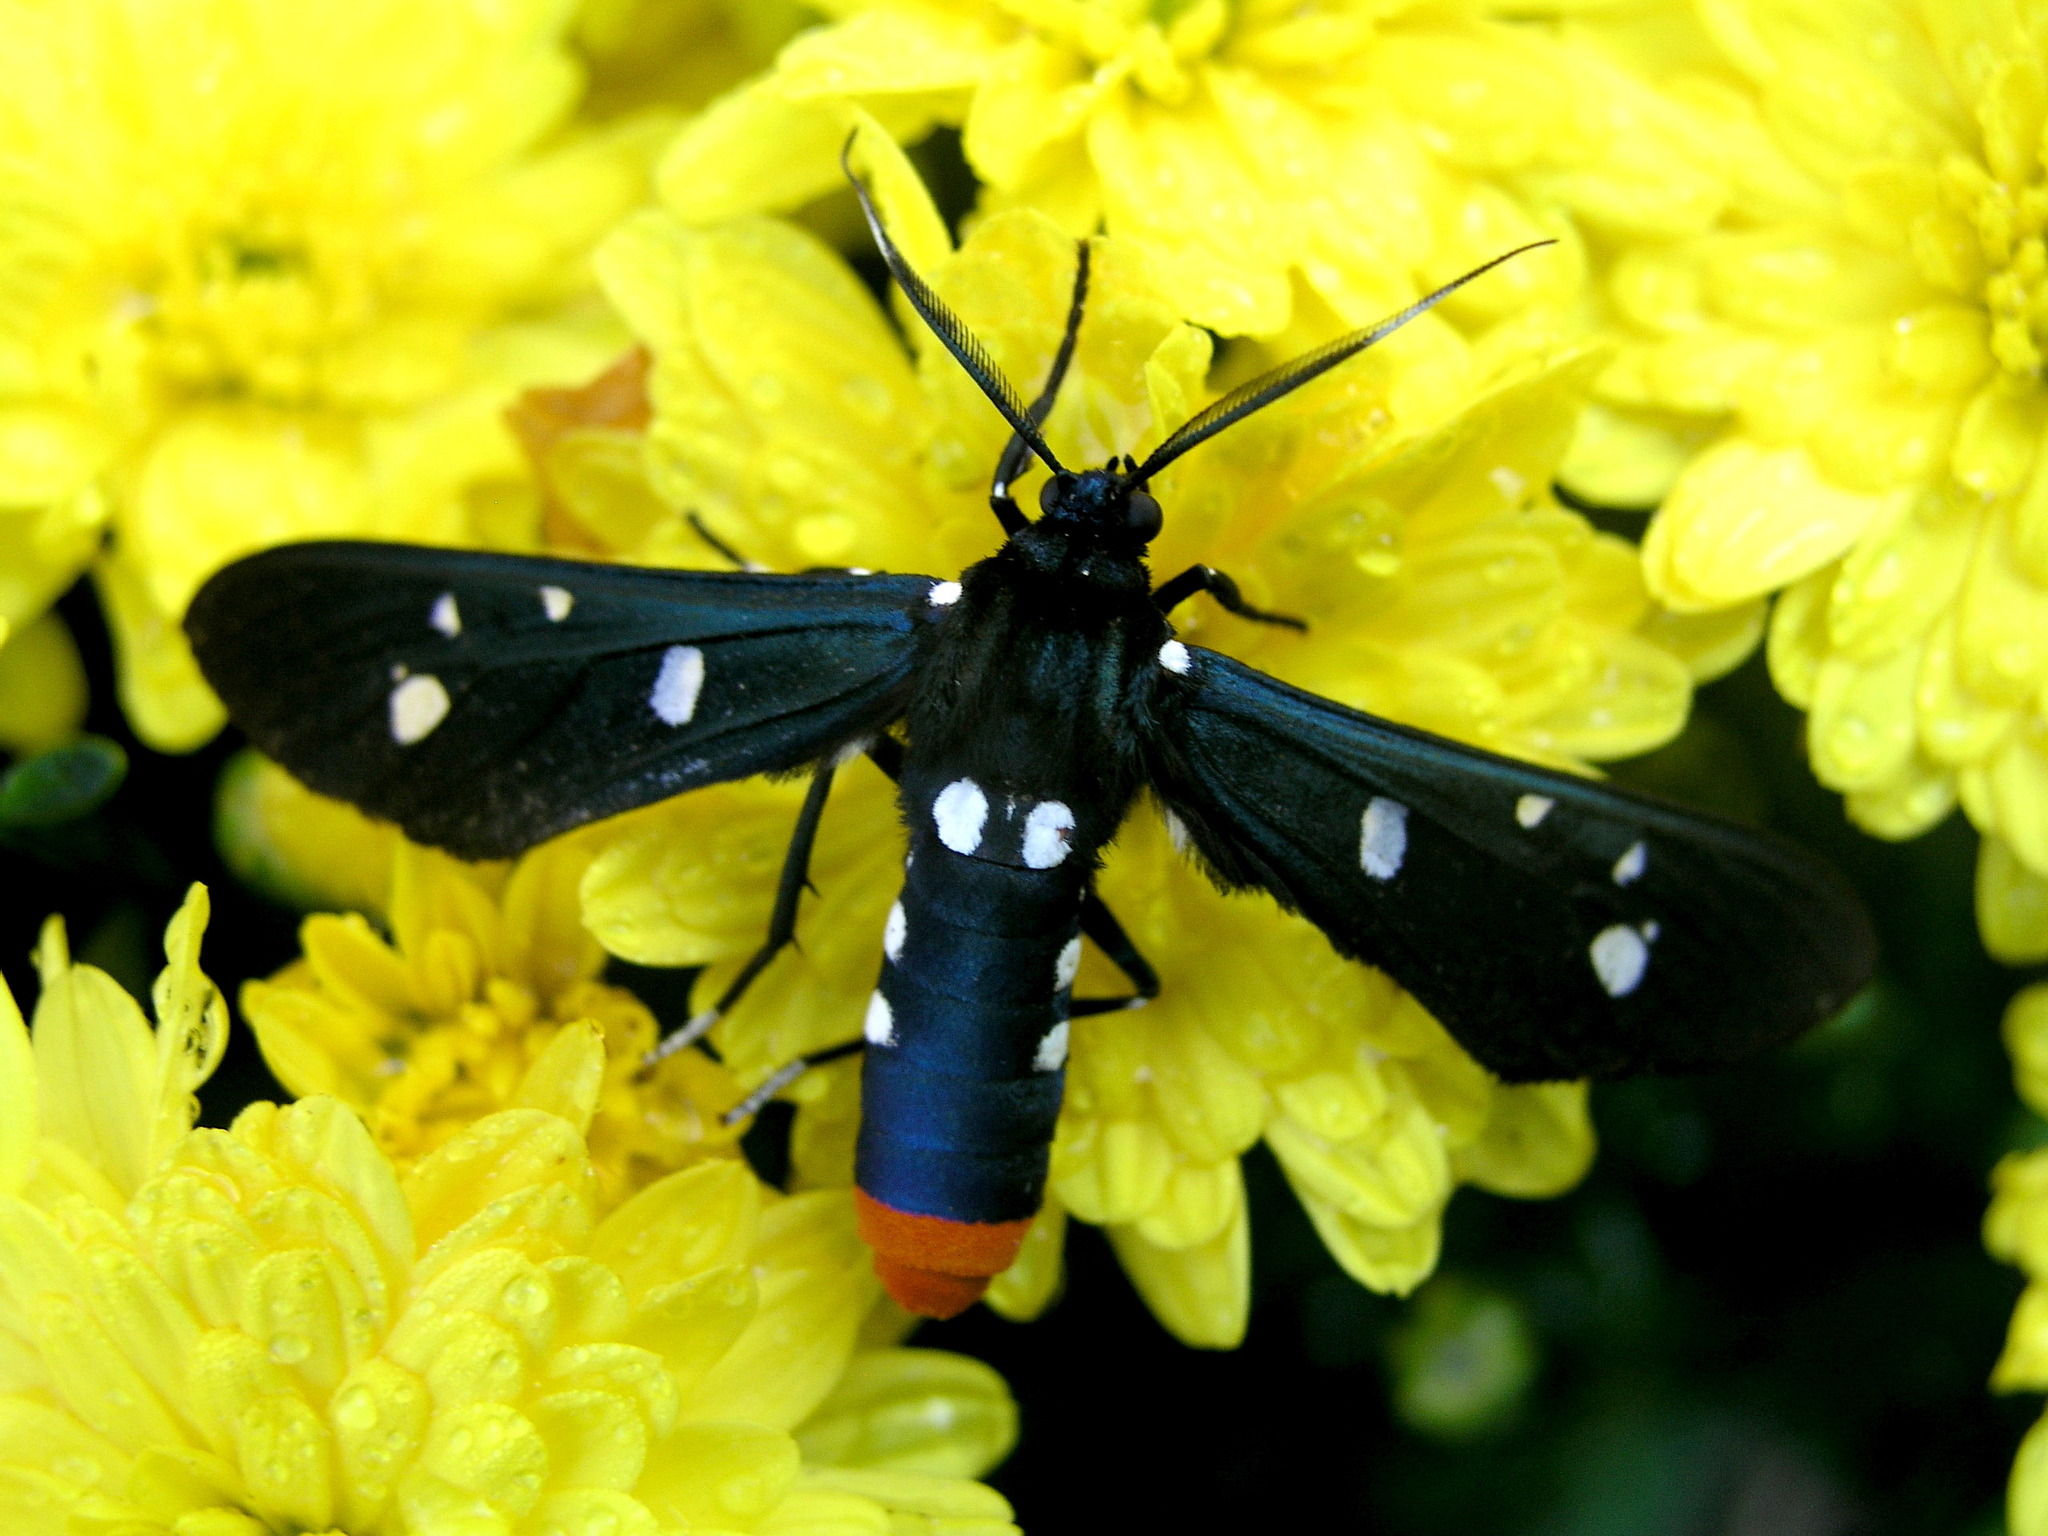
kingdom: Animalia
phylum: Arthropoda
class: Insecta
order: Lepidoptera
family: Erebidae
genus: Syntomeida
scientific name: Syntomeida epilais
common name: Polka-dot wasp moth
